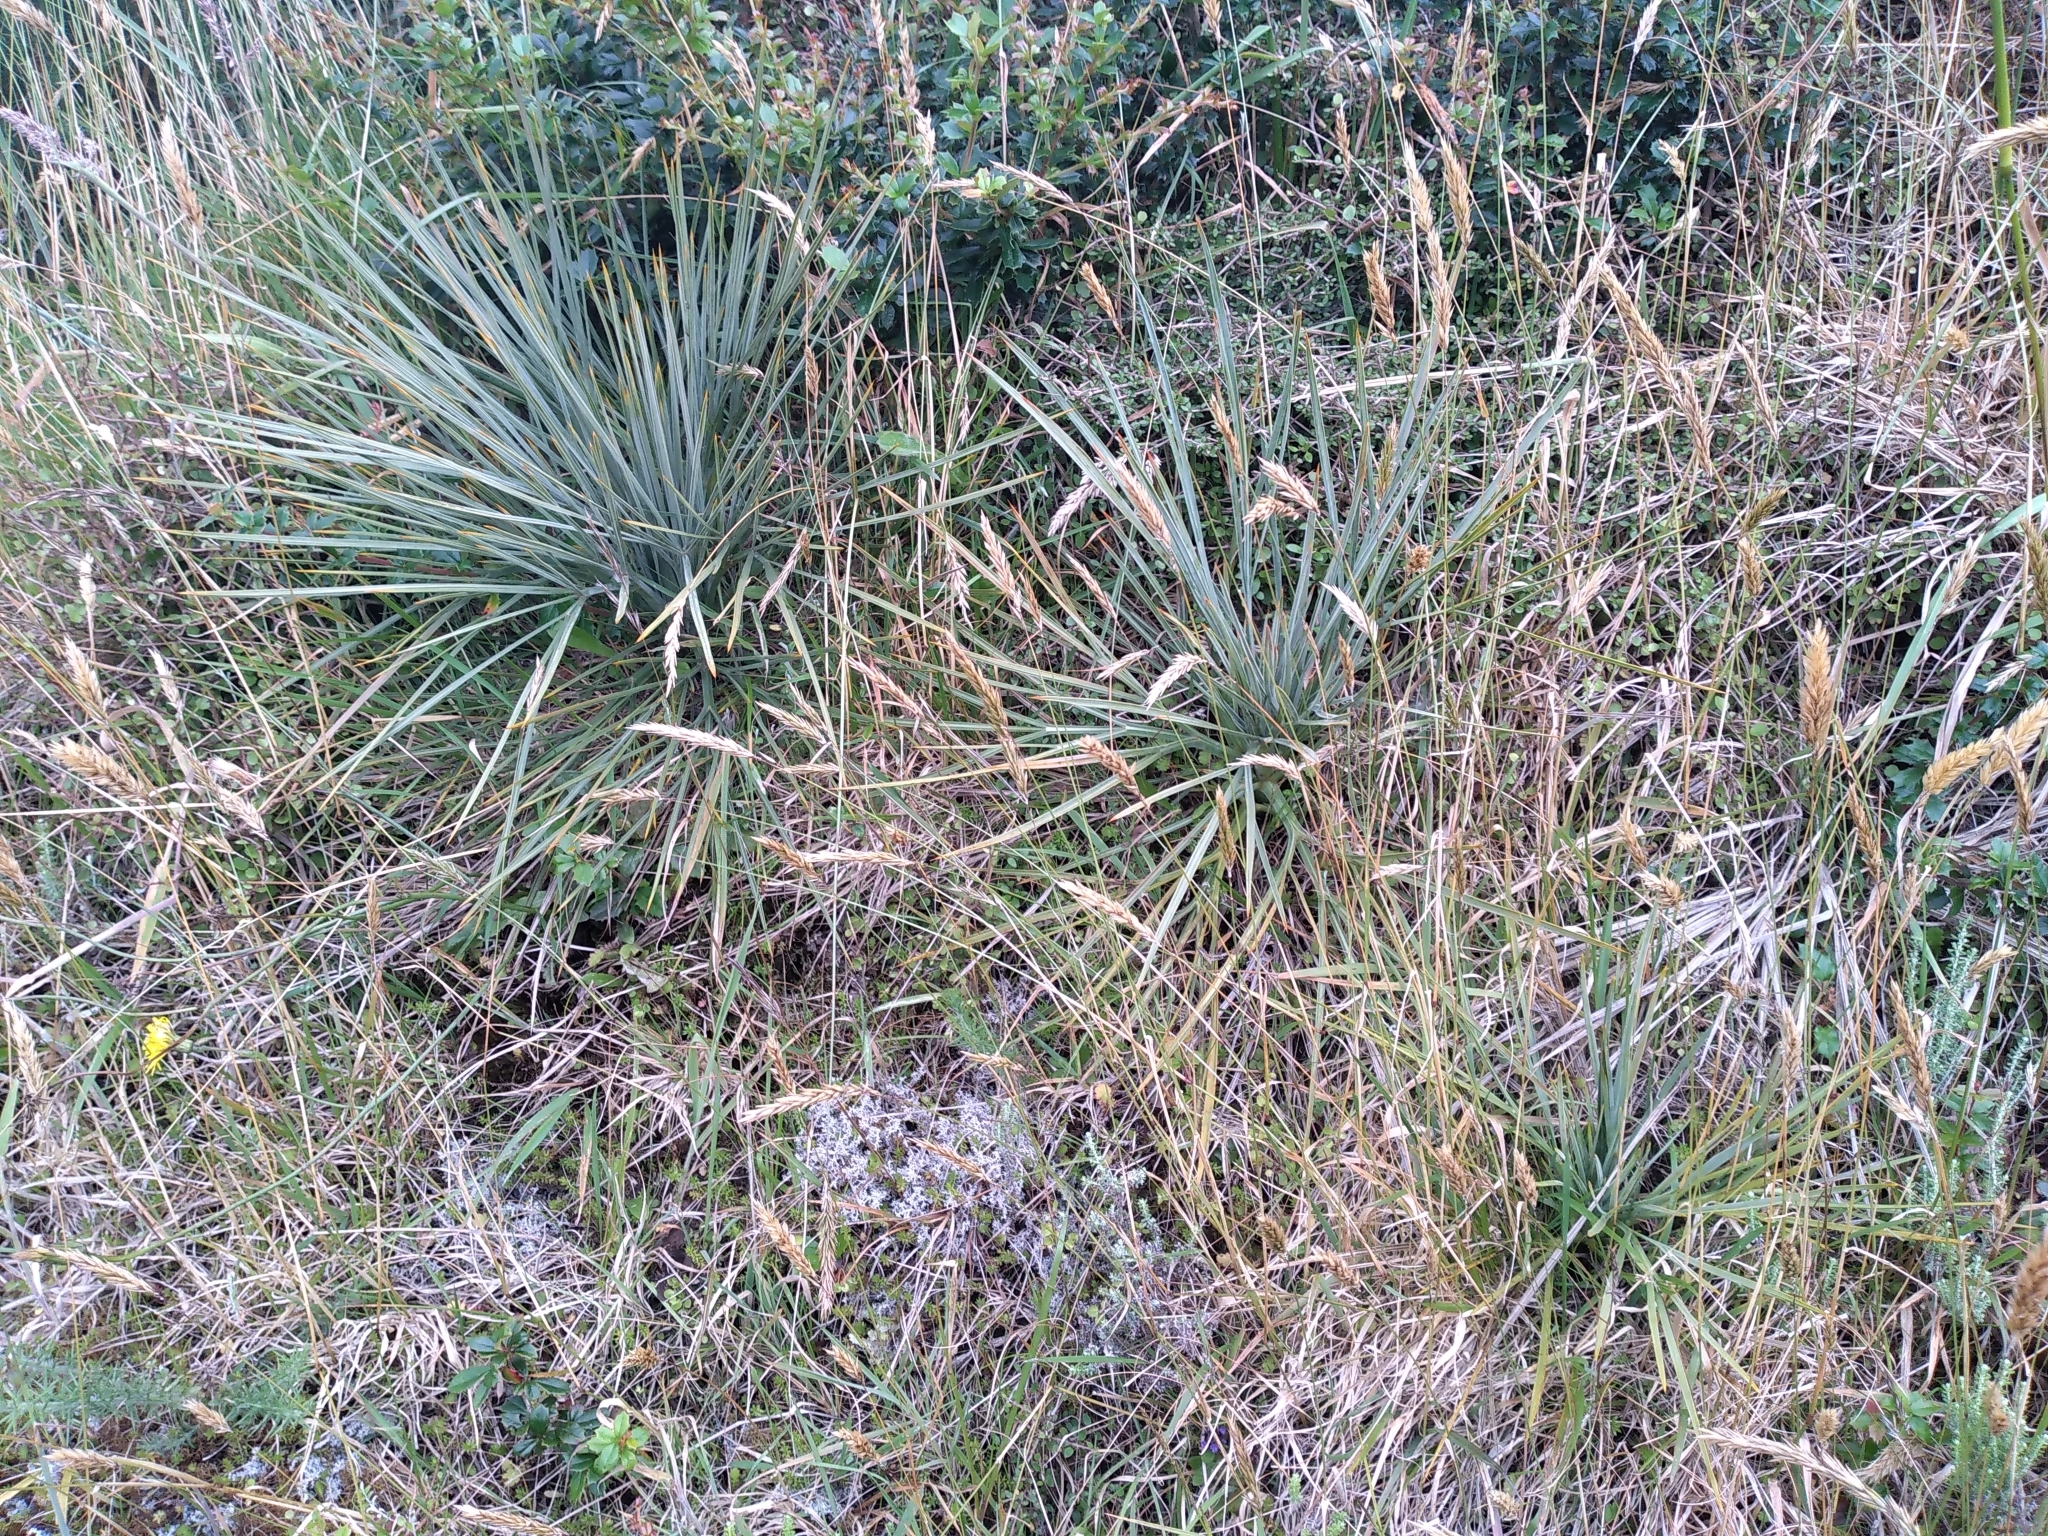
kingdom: Plantae
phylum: Tracheophyta
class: Magnoliopsida
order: Apiales
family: Apiaceae
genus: Aciphylla
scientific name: Aciphylla squarrosa
